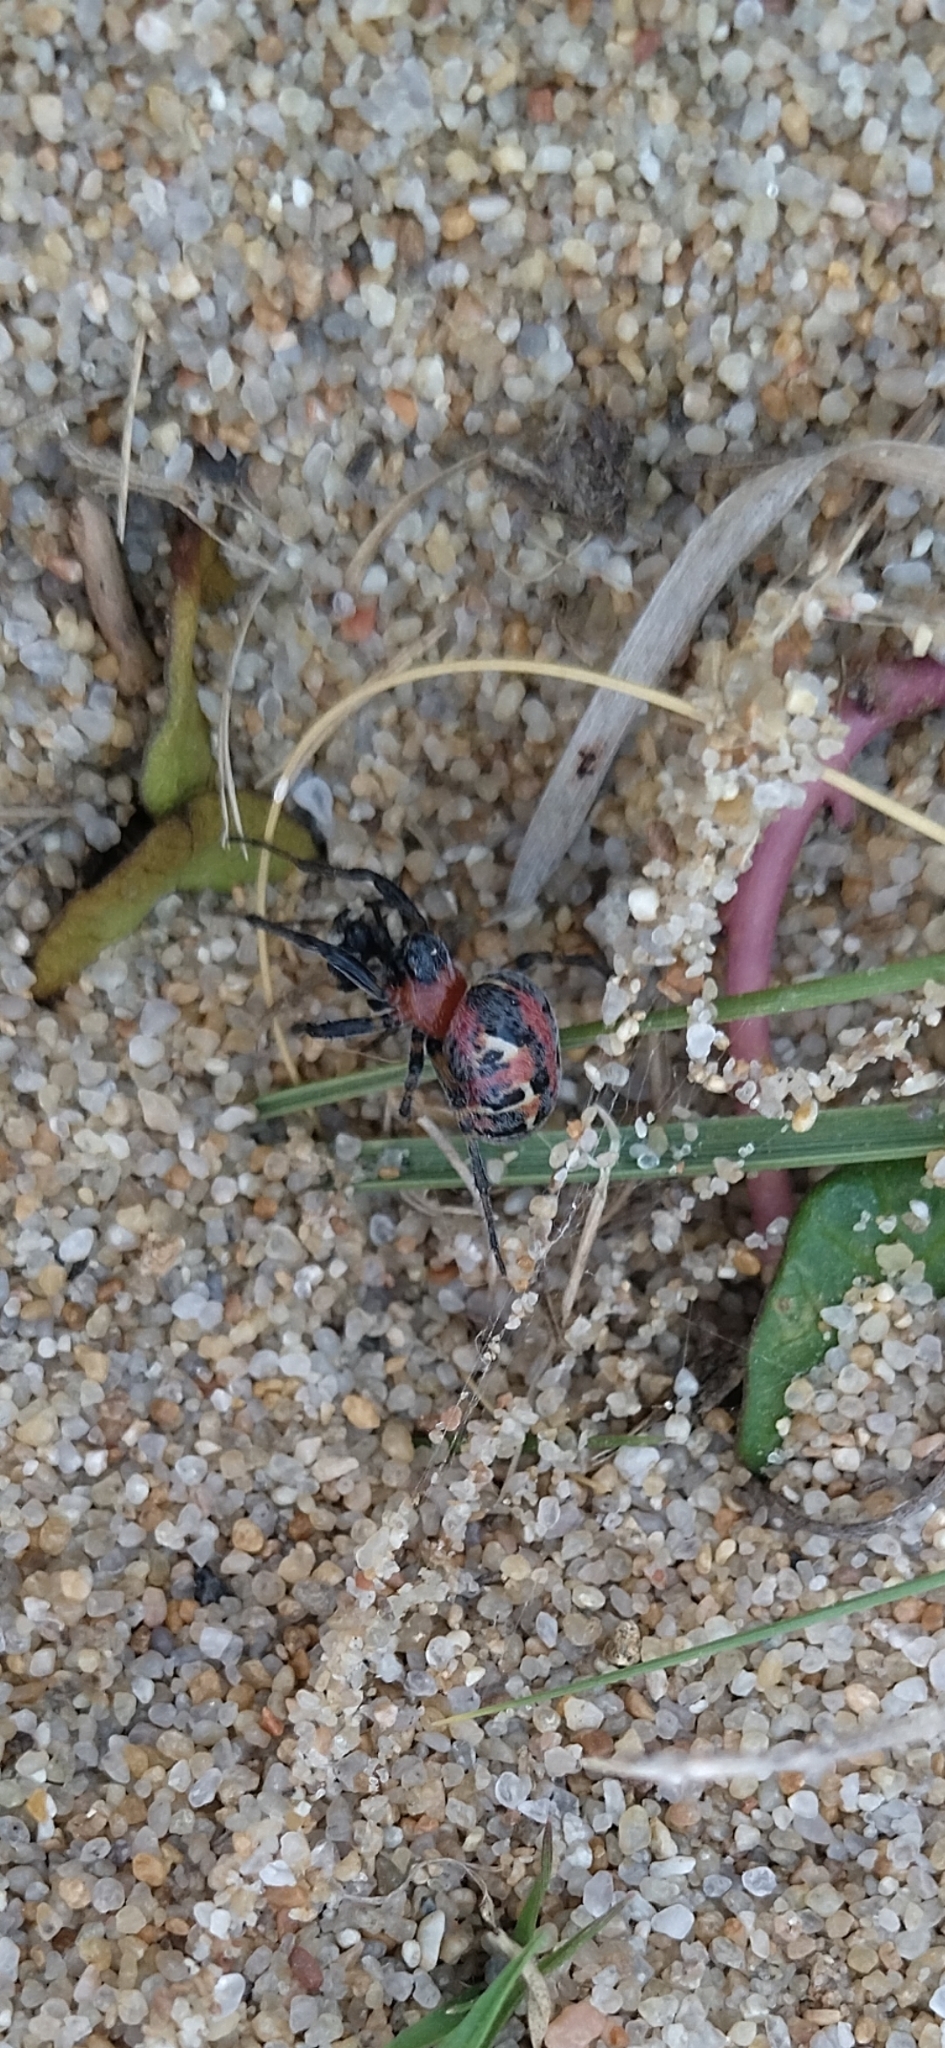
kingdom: Animalia
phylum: Arthropoda
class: Arachnida
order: Araneae
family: Araneidae
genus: Alpaida
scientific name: Alpaida versicolor
